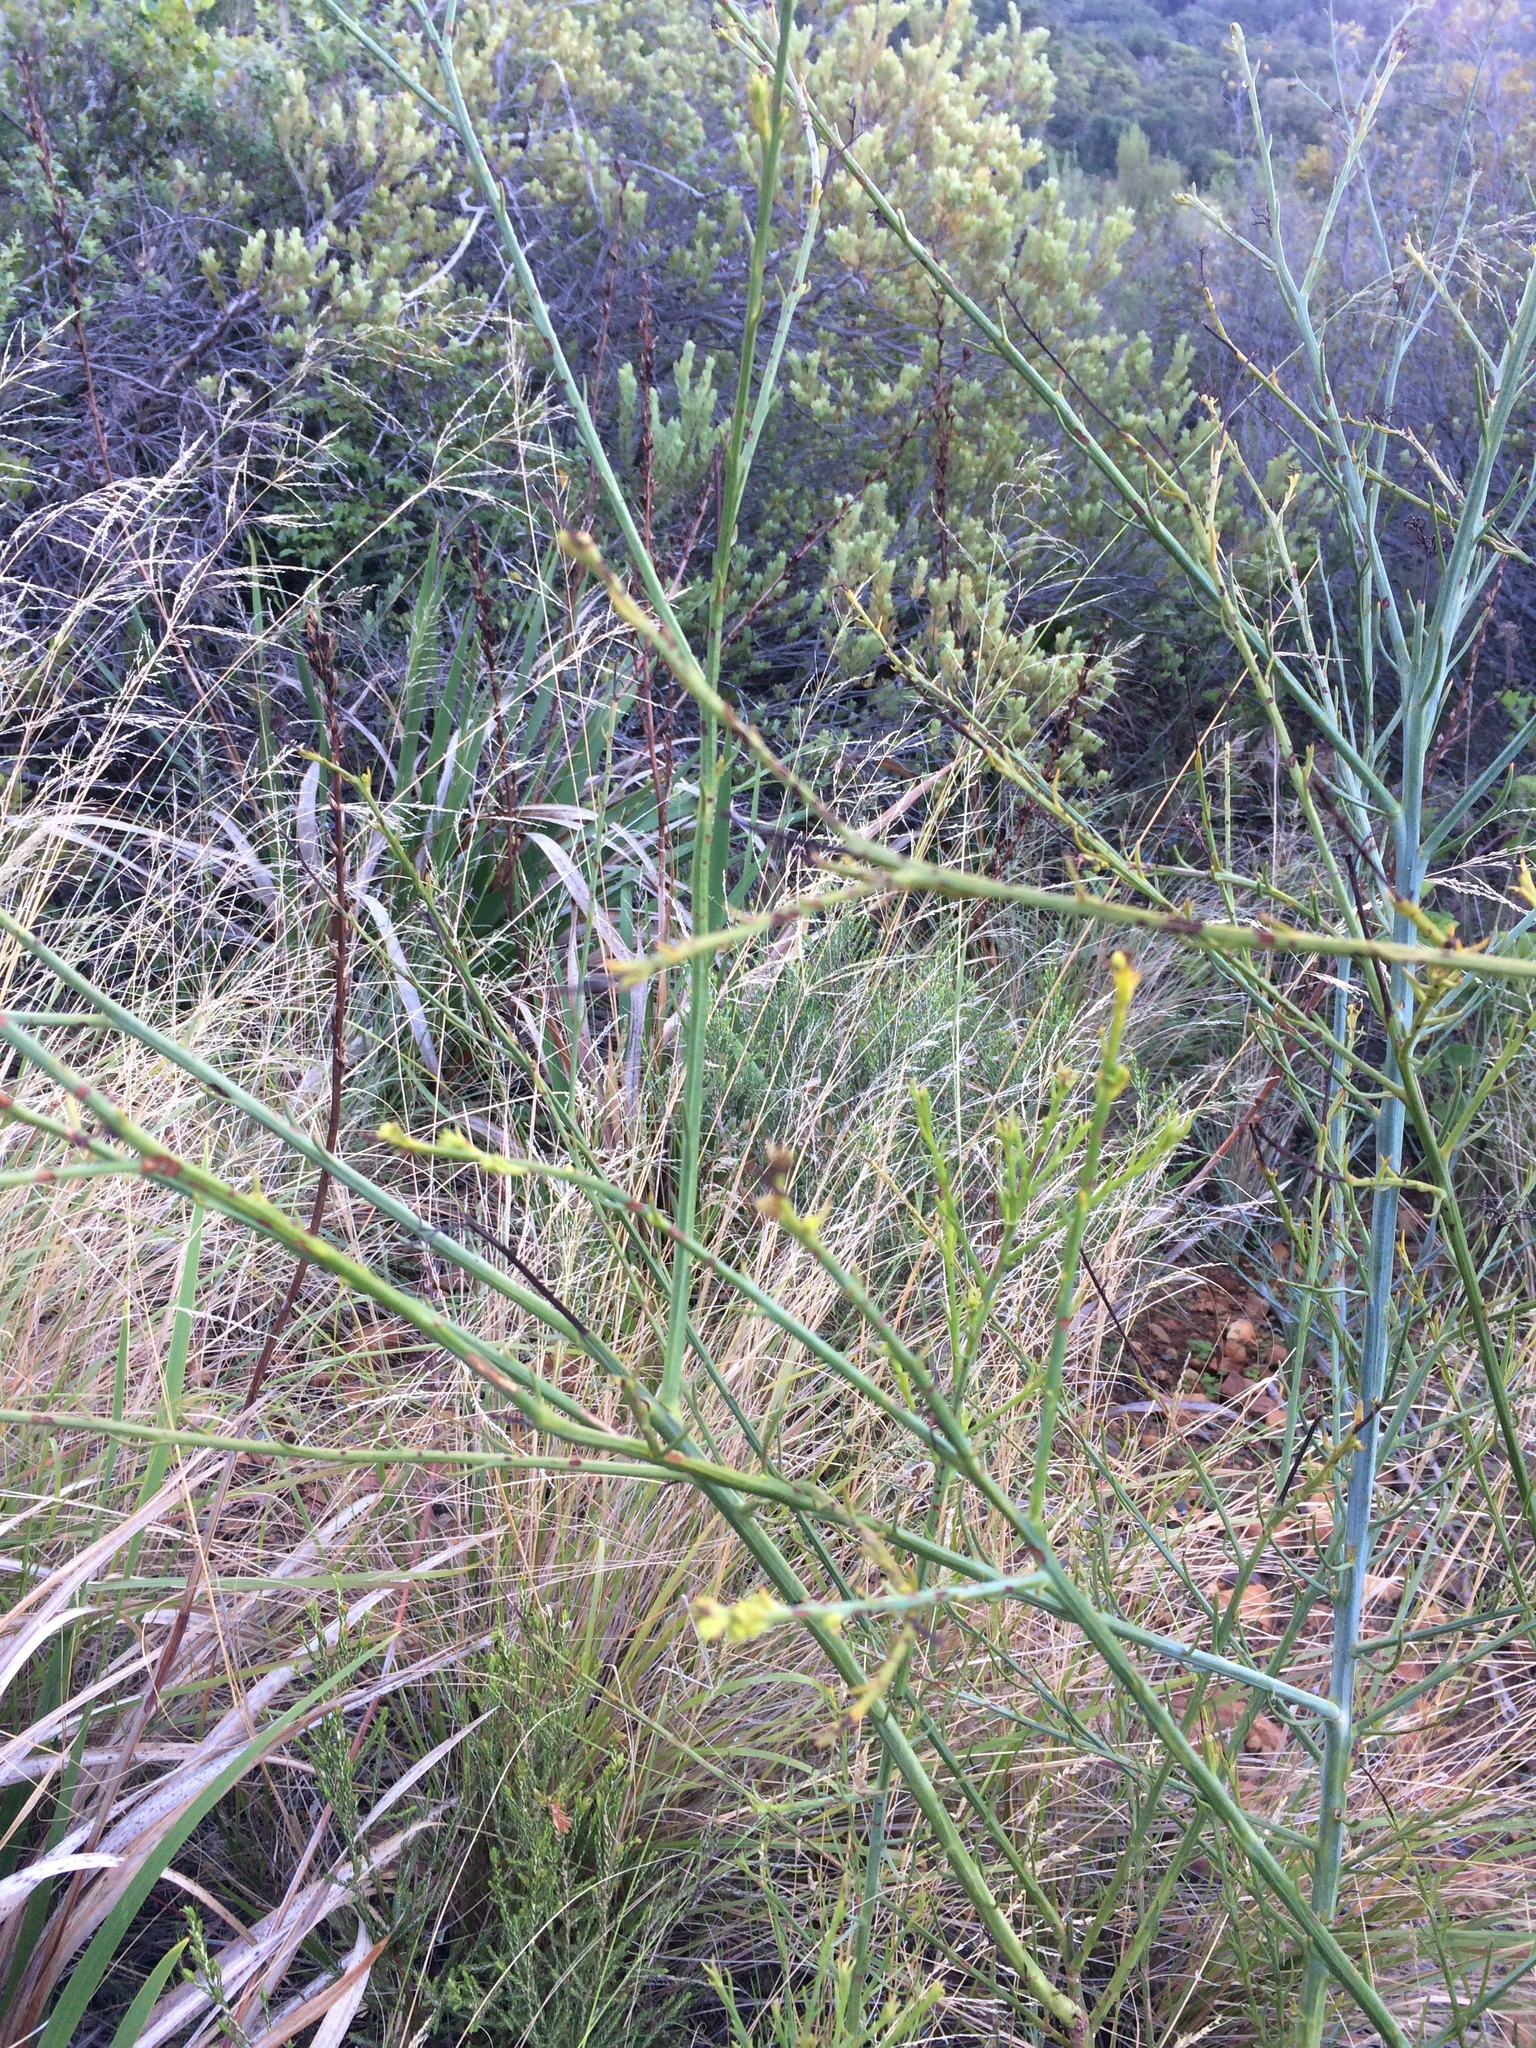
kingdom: Plantae
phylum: Tracheophyta
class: Magnoliopsida
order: Santalales
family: Thesiaceae
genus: Thesium
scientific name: Thesium strictum
